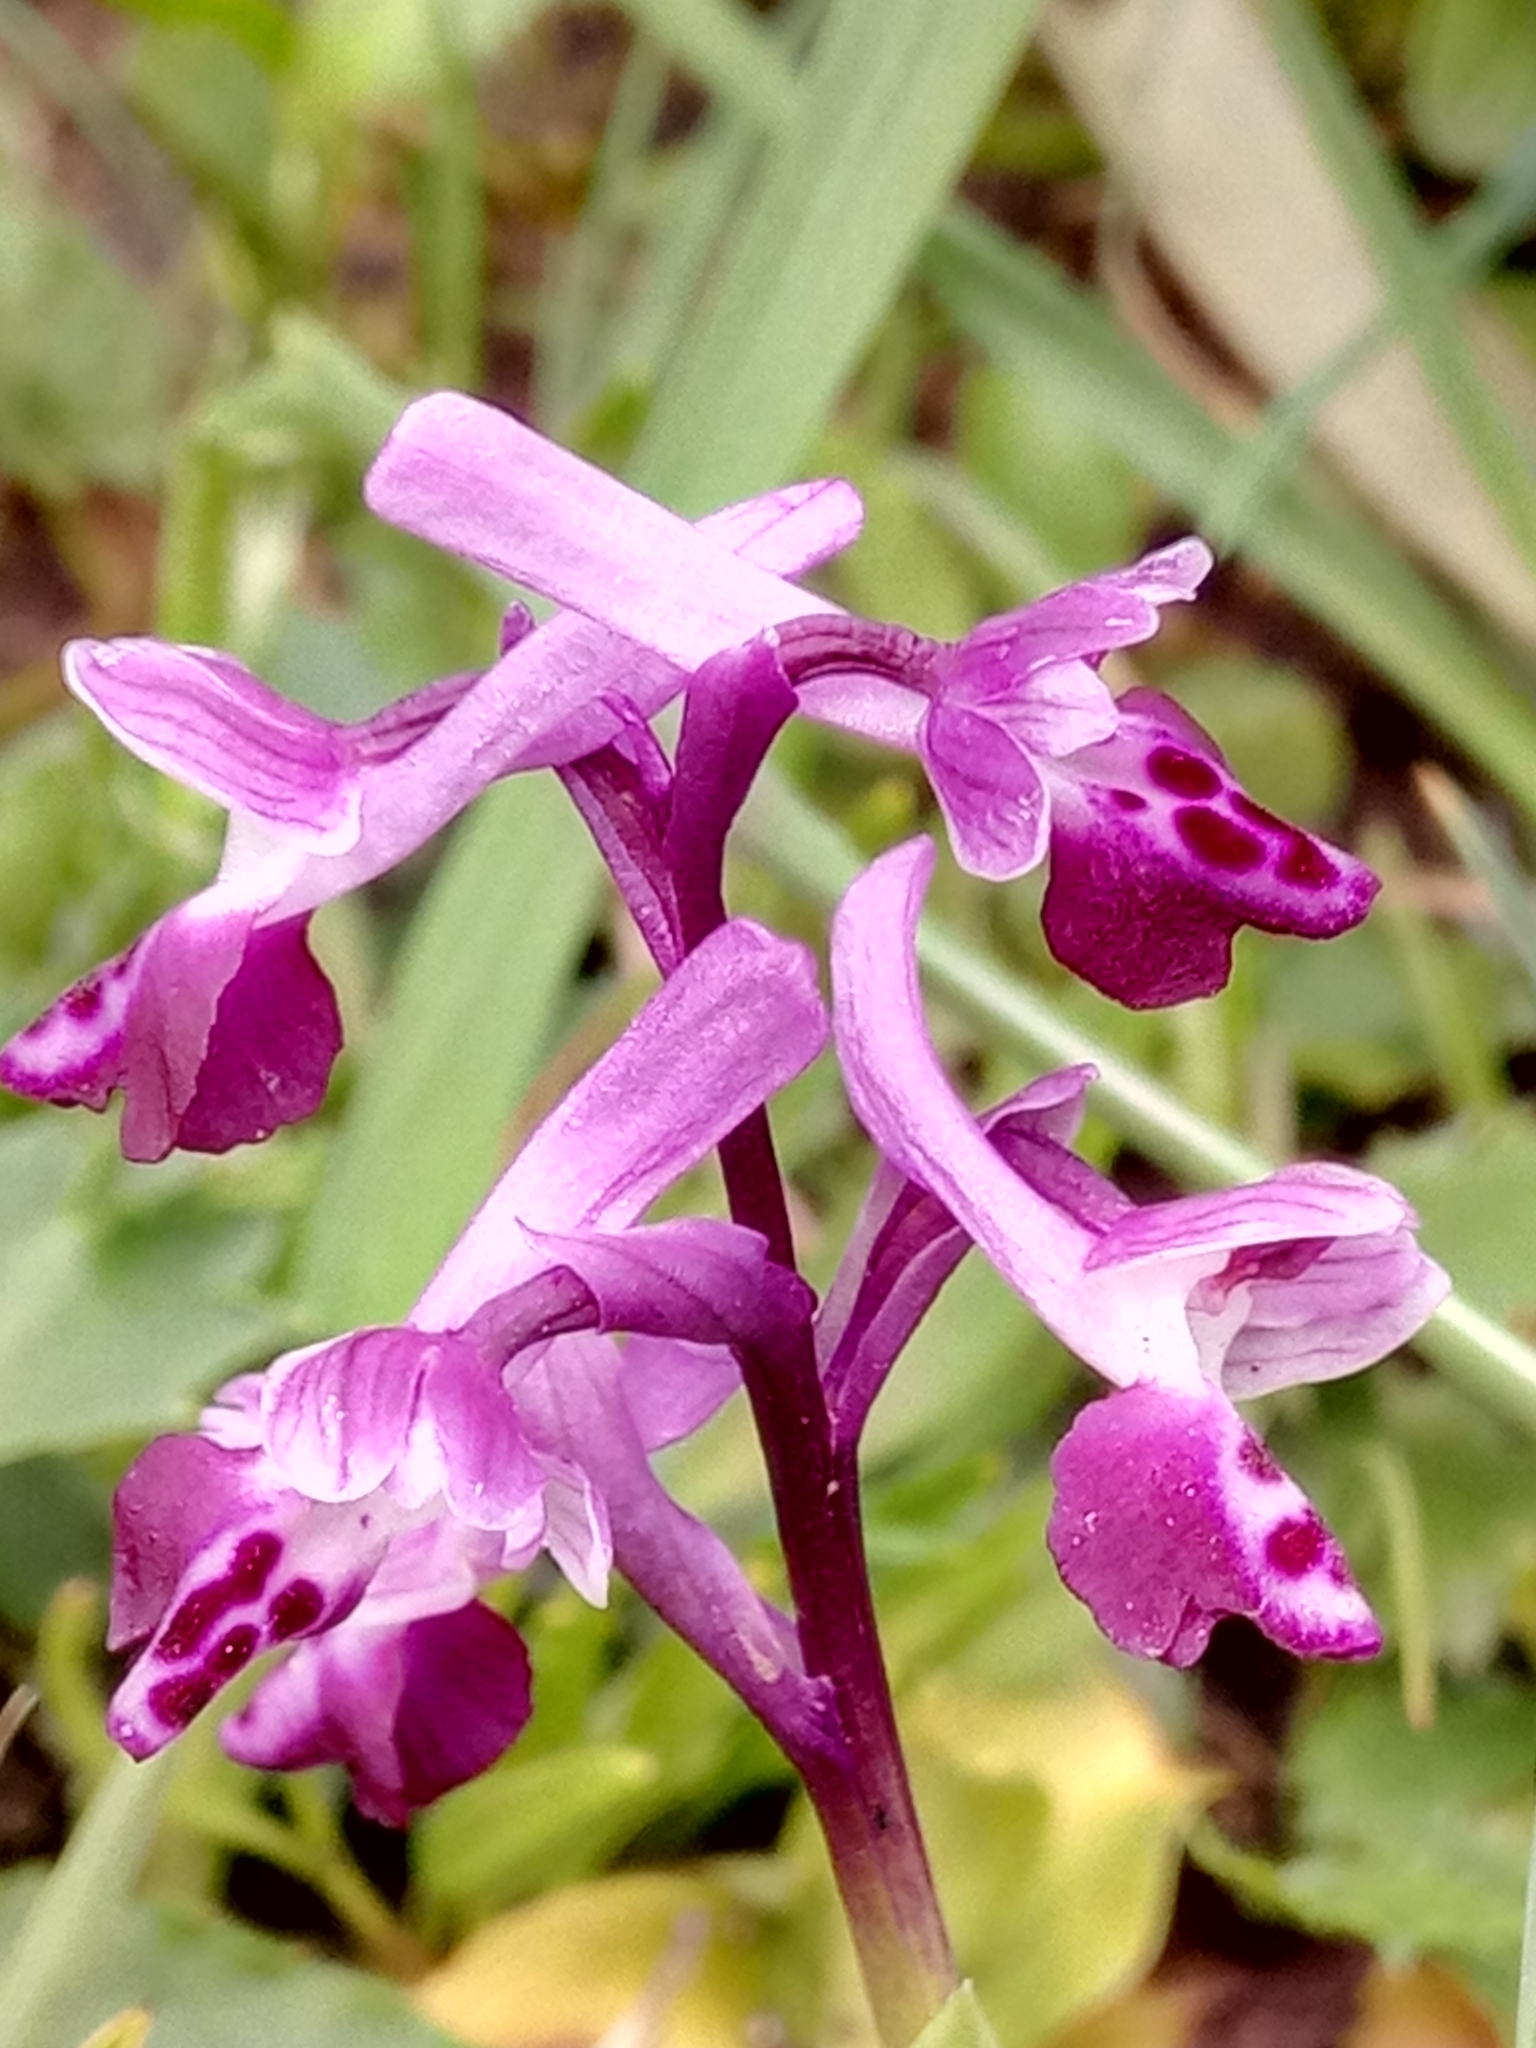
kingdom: Plantae
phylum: Tracheophyta
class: Liliopsida
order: Asparagales
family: Orchidaceae
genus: Anacamptis
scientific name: Anacamptis morio
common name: Green-winged orchid
